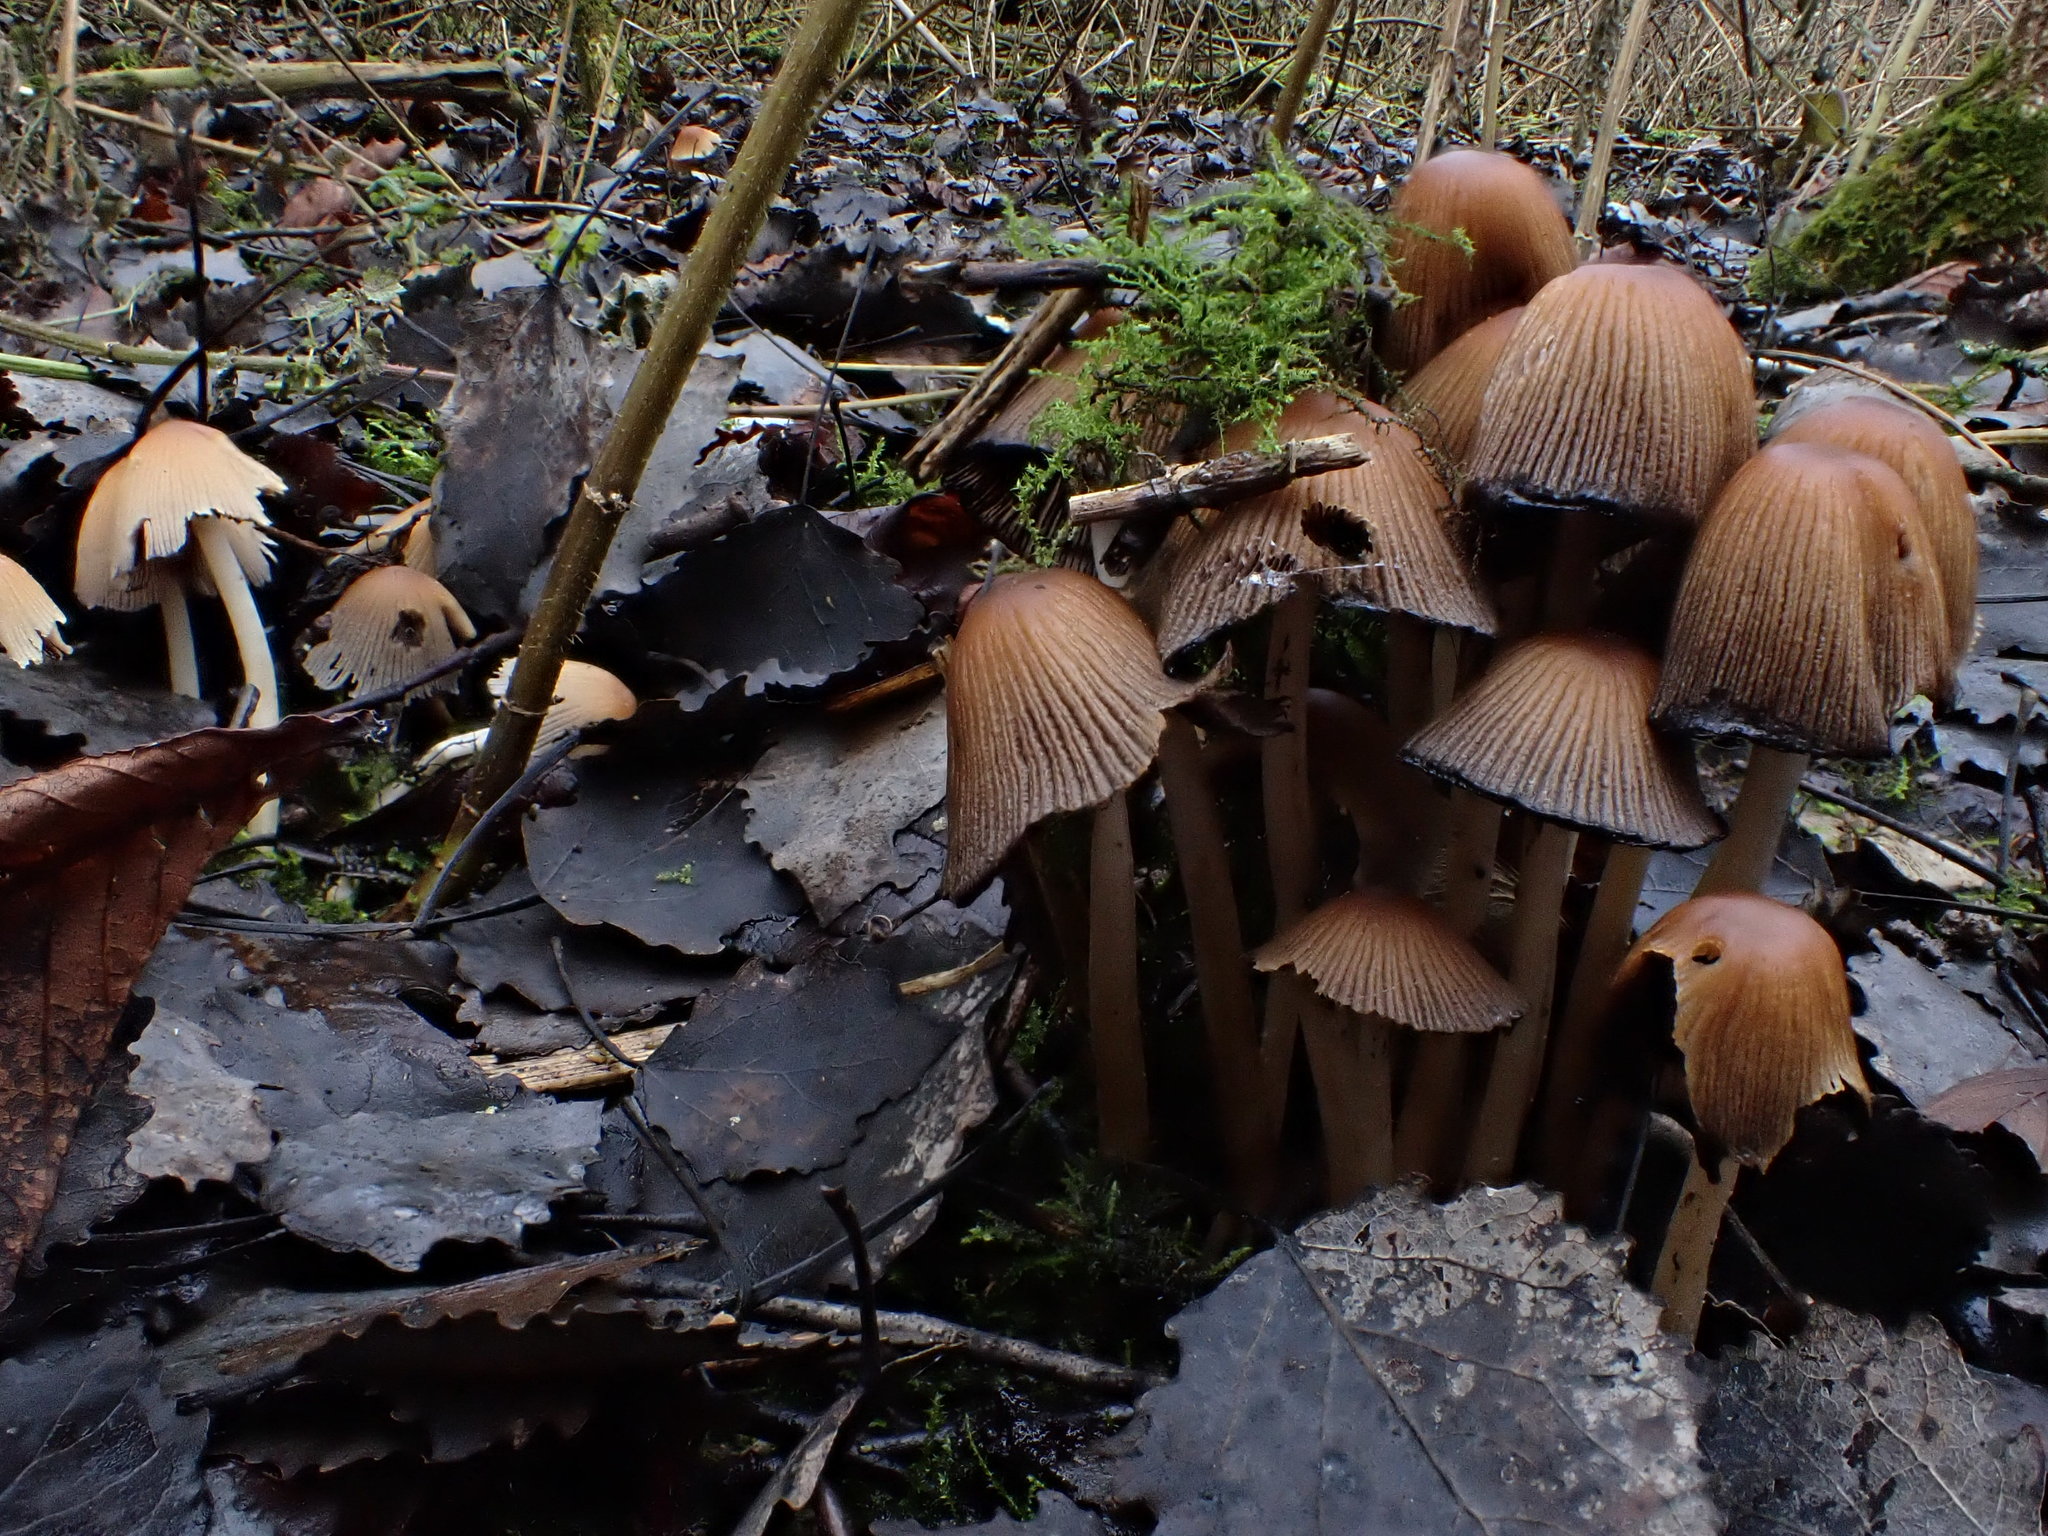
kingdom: Fungi
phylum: Basidiomycota
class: Agaricomycetes
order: Agaricales
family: Psathyrellaceae
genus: Coprinellus
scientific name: Coprinellus micaceus
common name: Glistening ink-cap
